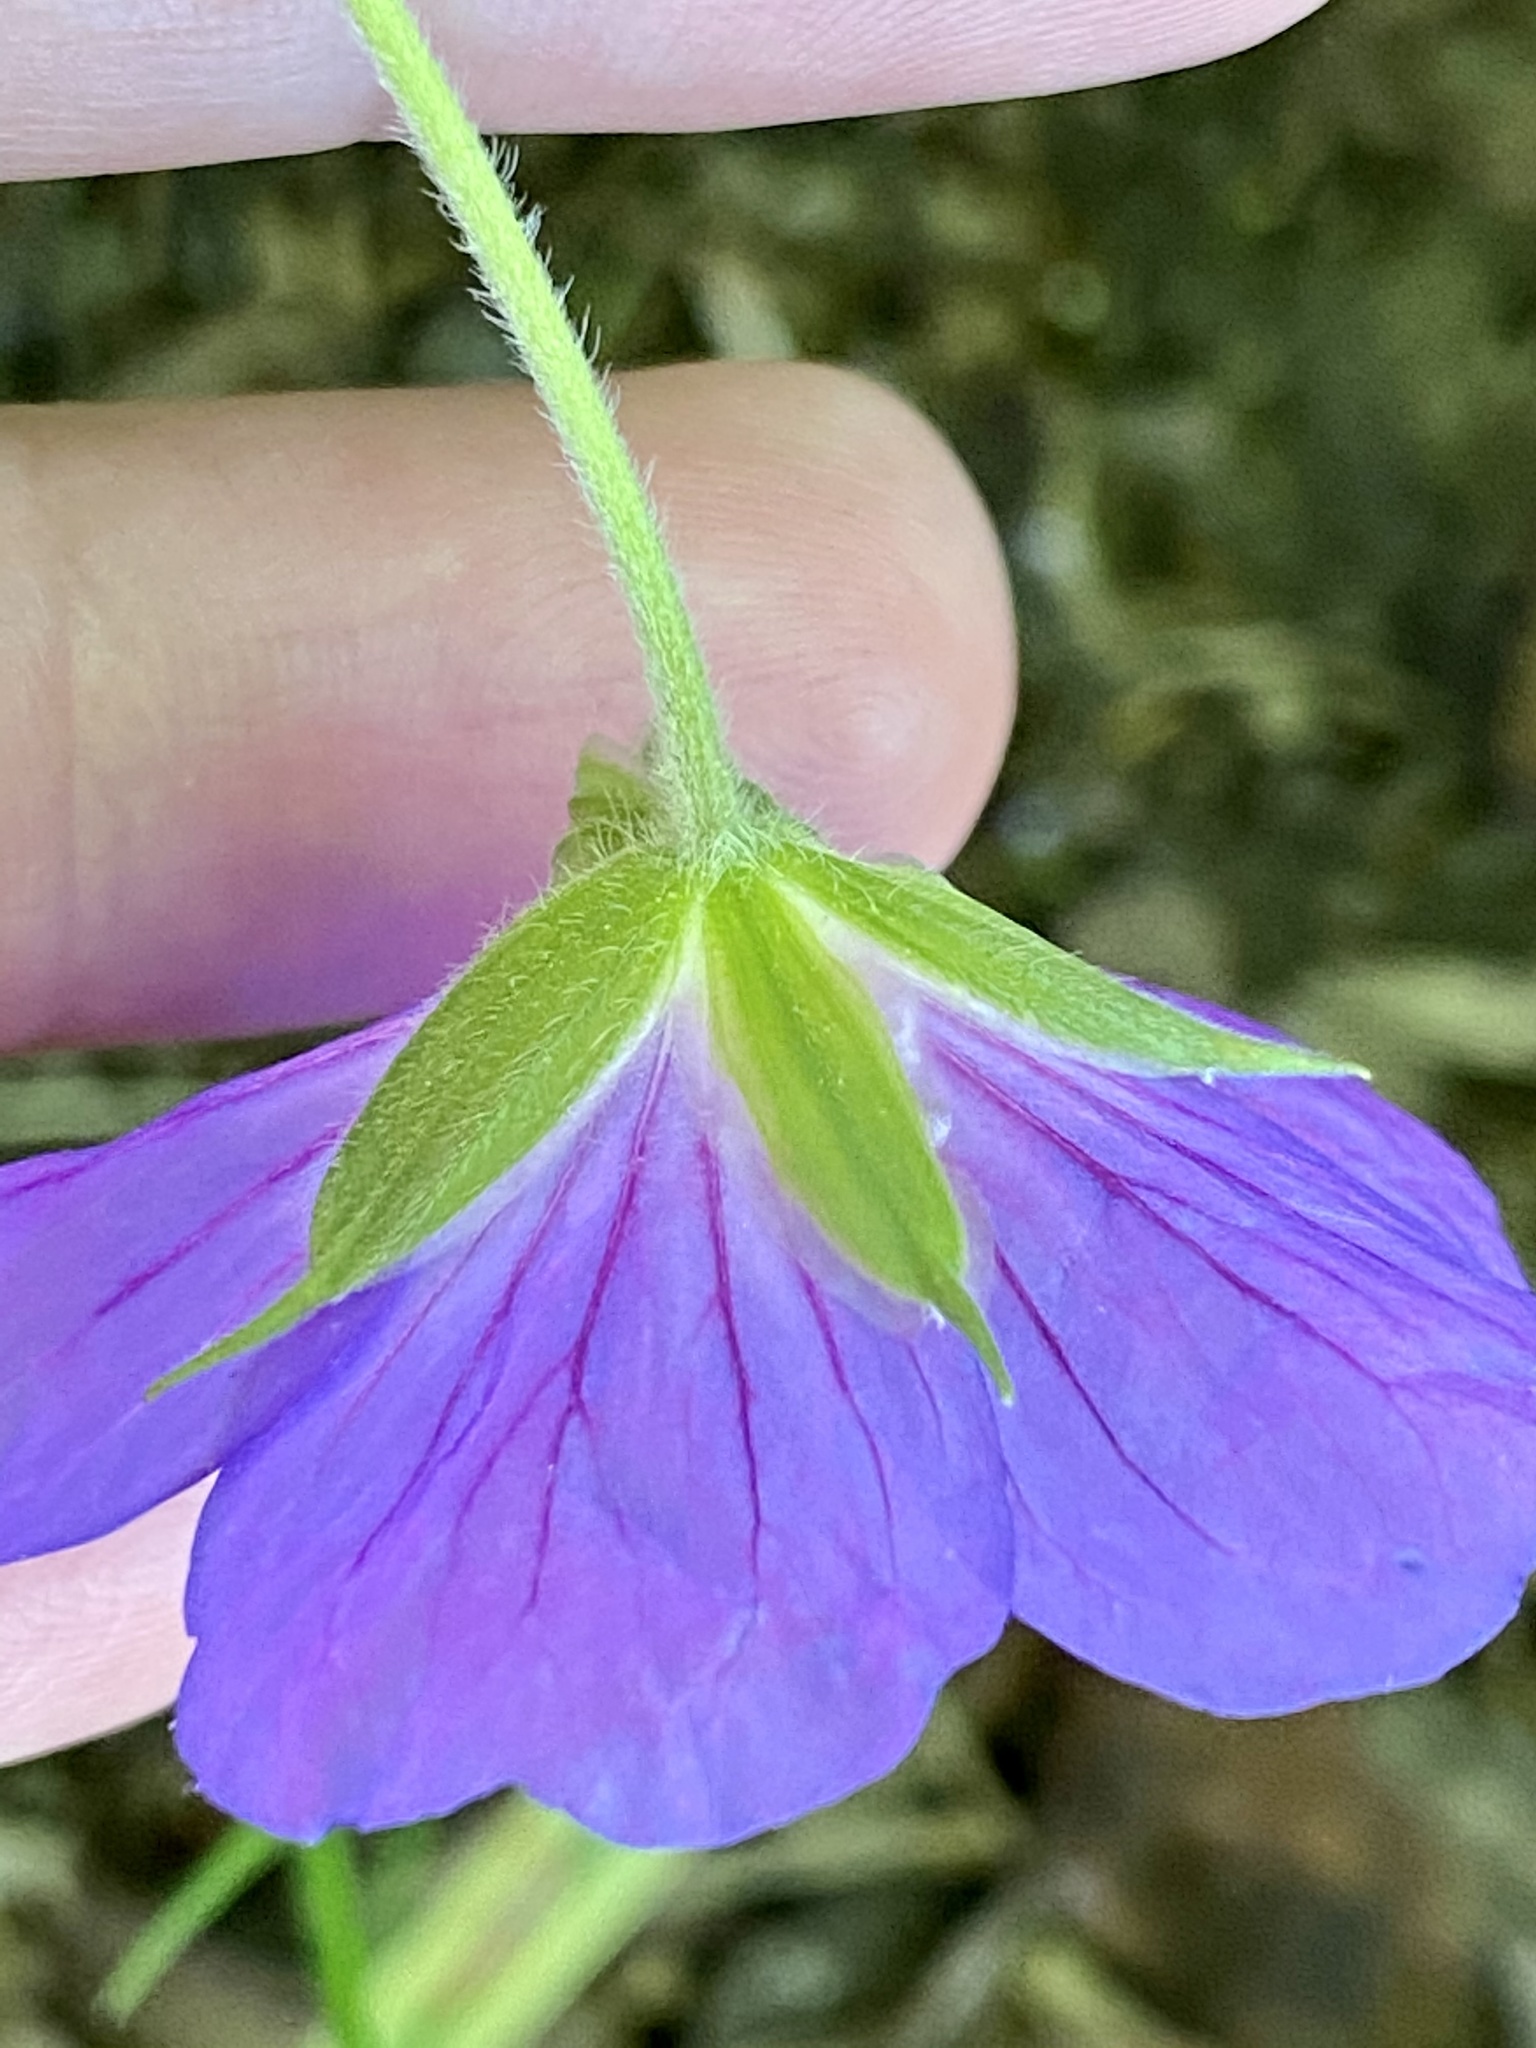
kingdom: Plantae
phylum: Tracheophyta
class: Magnoliopsida
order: Geraniales
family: Geraniaceae
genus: Geranium
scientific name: Geranium maculatum
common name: Spotted geranium
